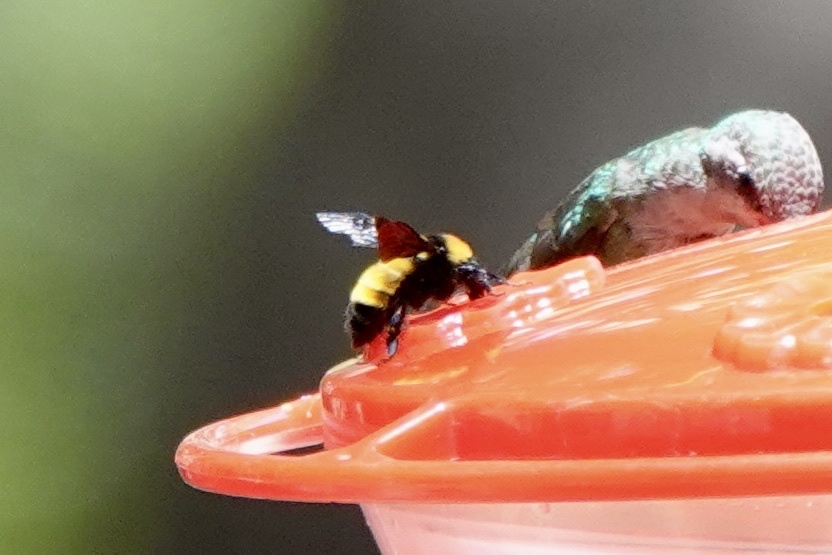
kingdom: Animalia
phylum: Arthropoda
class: Insecta
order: Hymenoptera
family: Apidae
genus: Bombus
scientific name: Bombus sonorus
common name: Sonoran bumble bee
